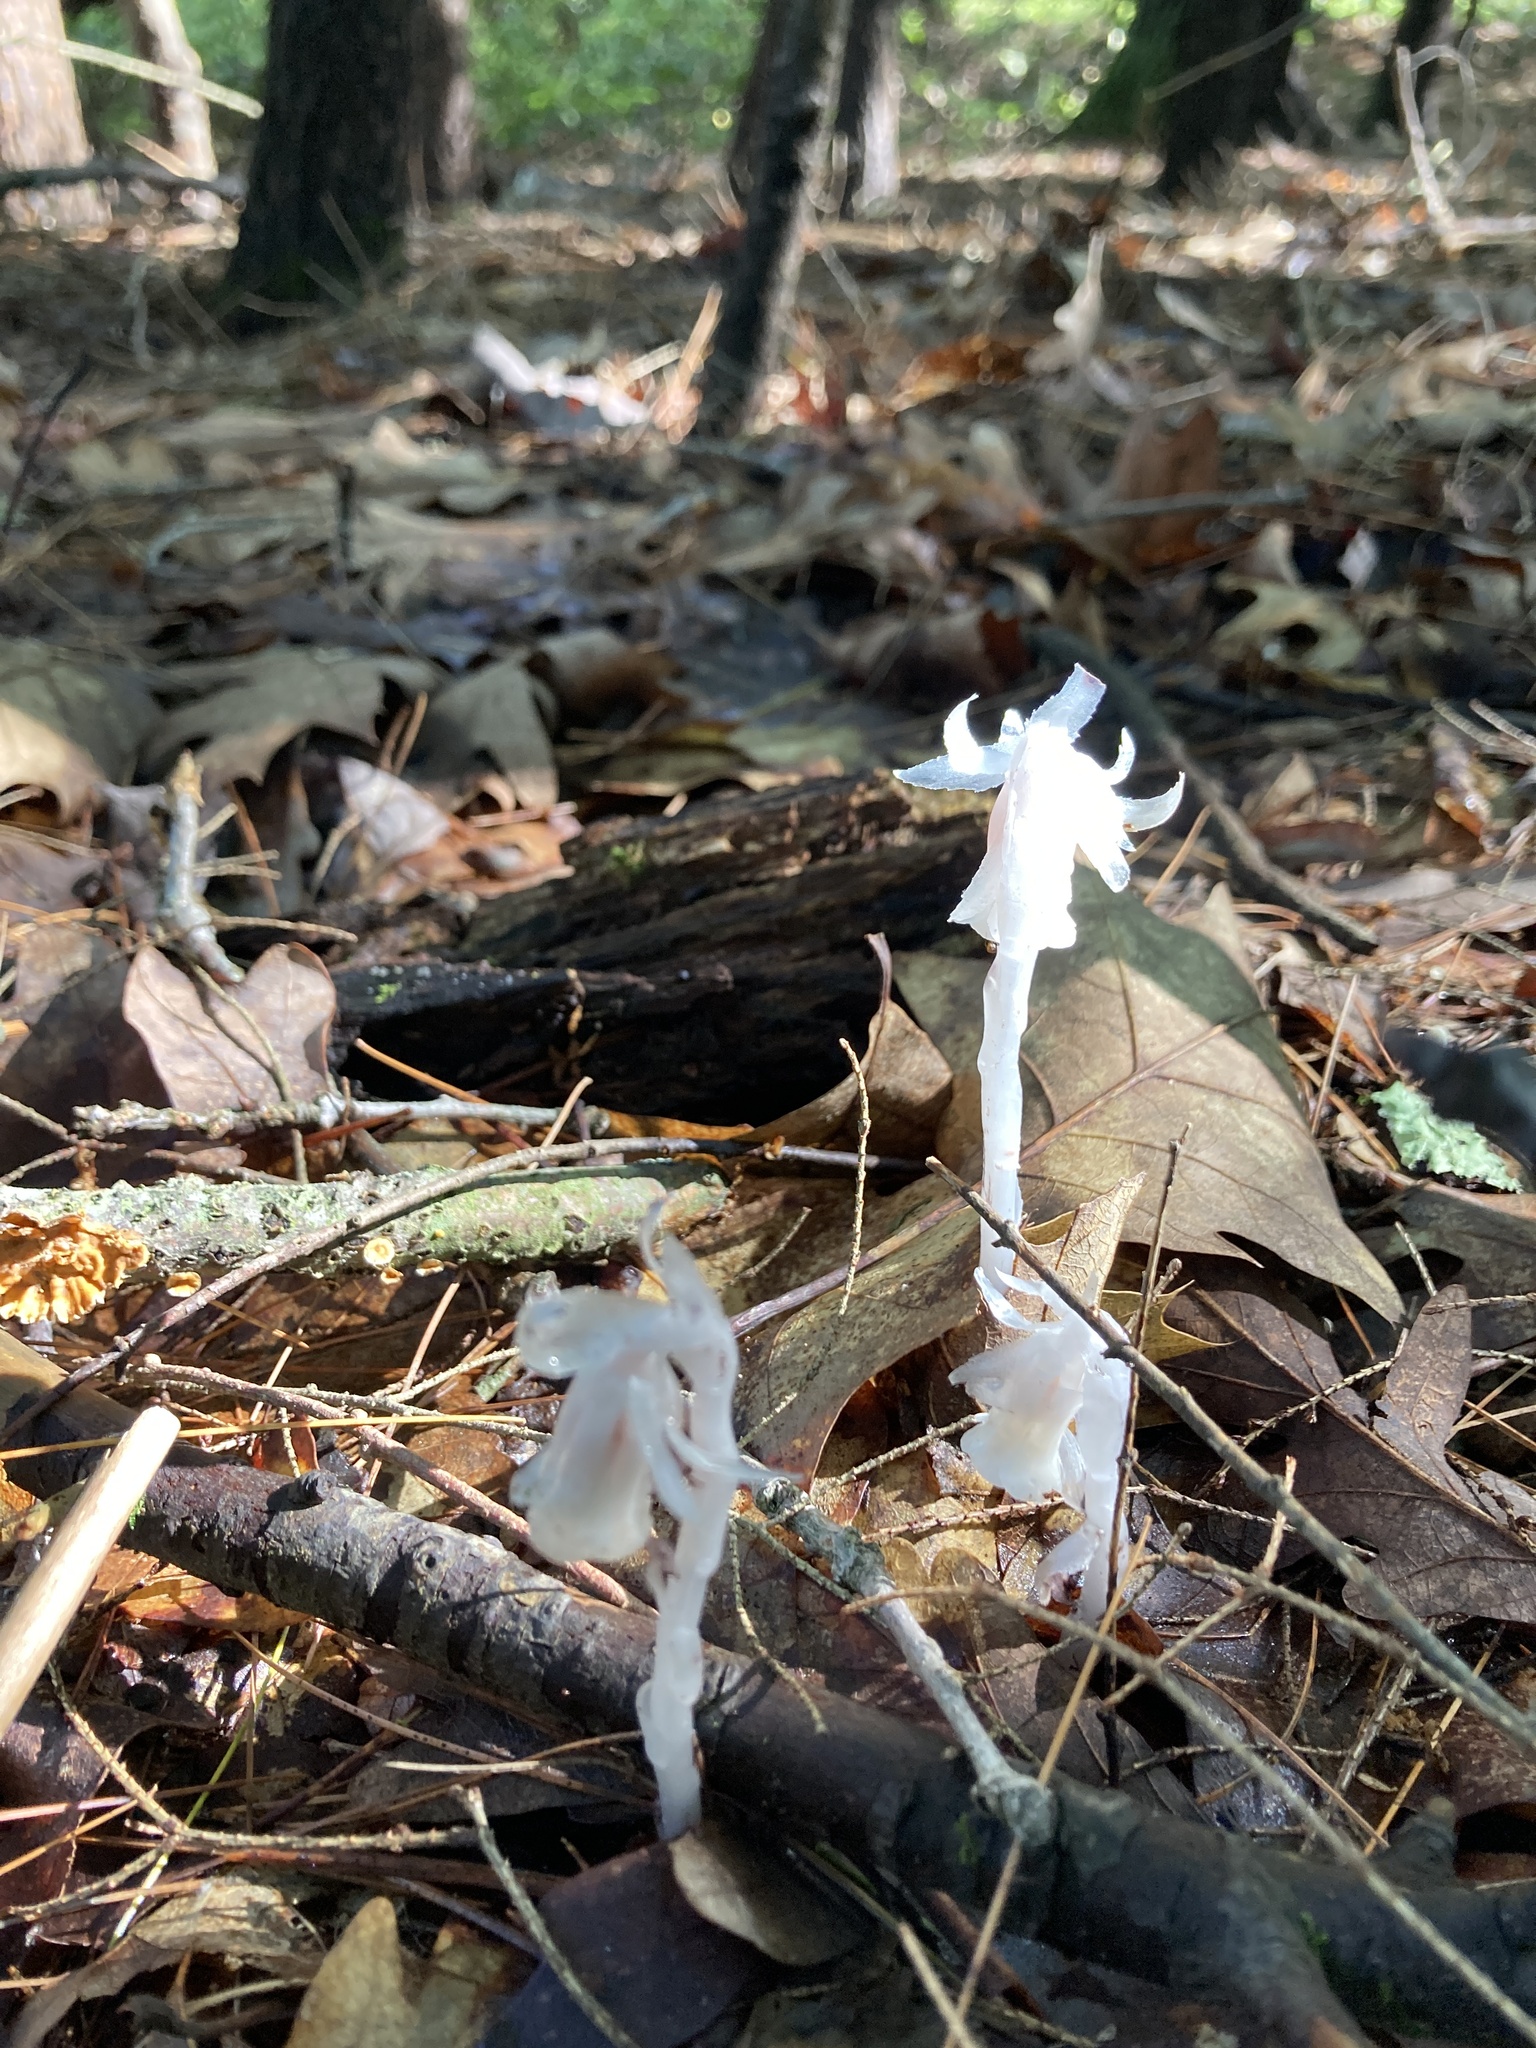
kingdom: Plantae
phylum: Tracheophyta
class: Magnoliopsida
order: Ericales
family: Ericaceae
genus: Monotropa
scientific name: Monotropa uniflora
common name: Convulsion root
